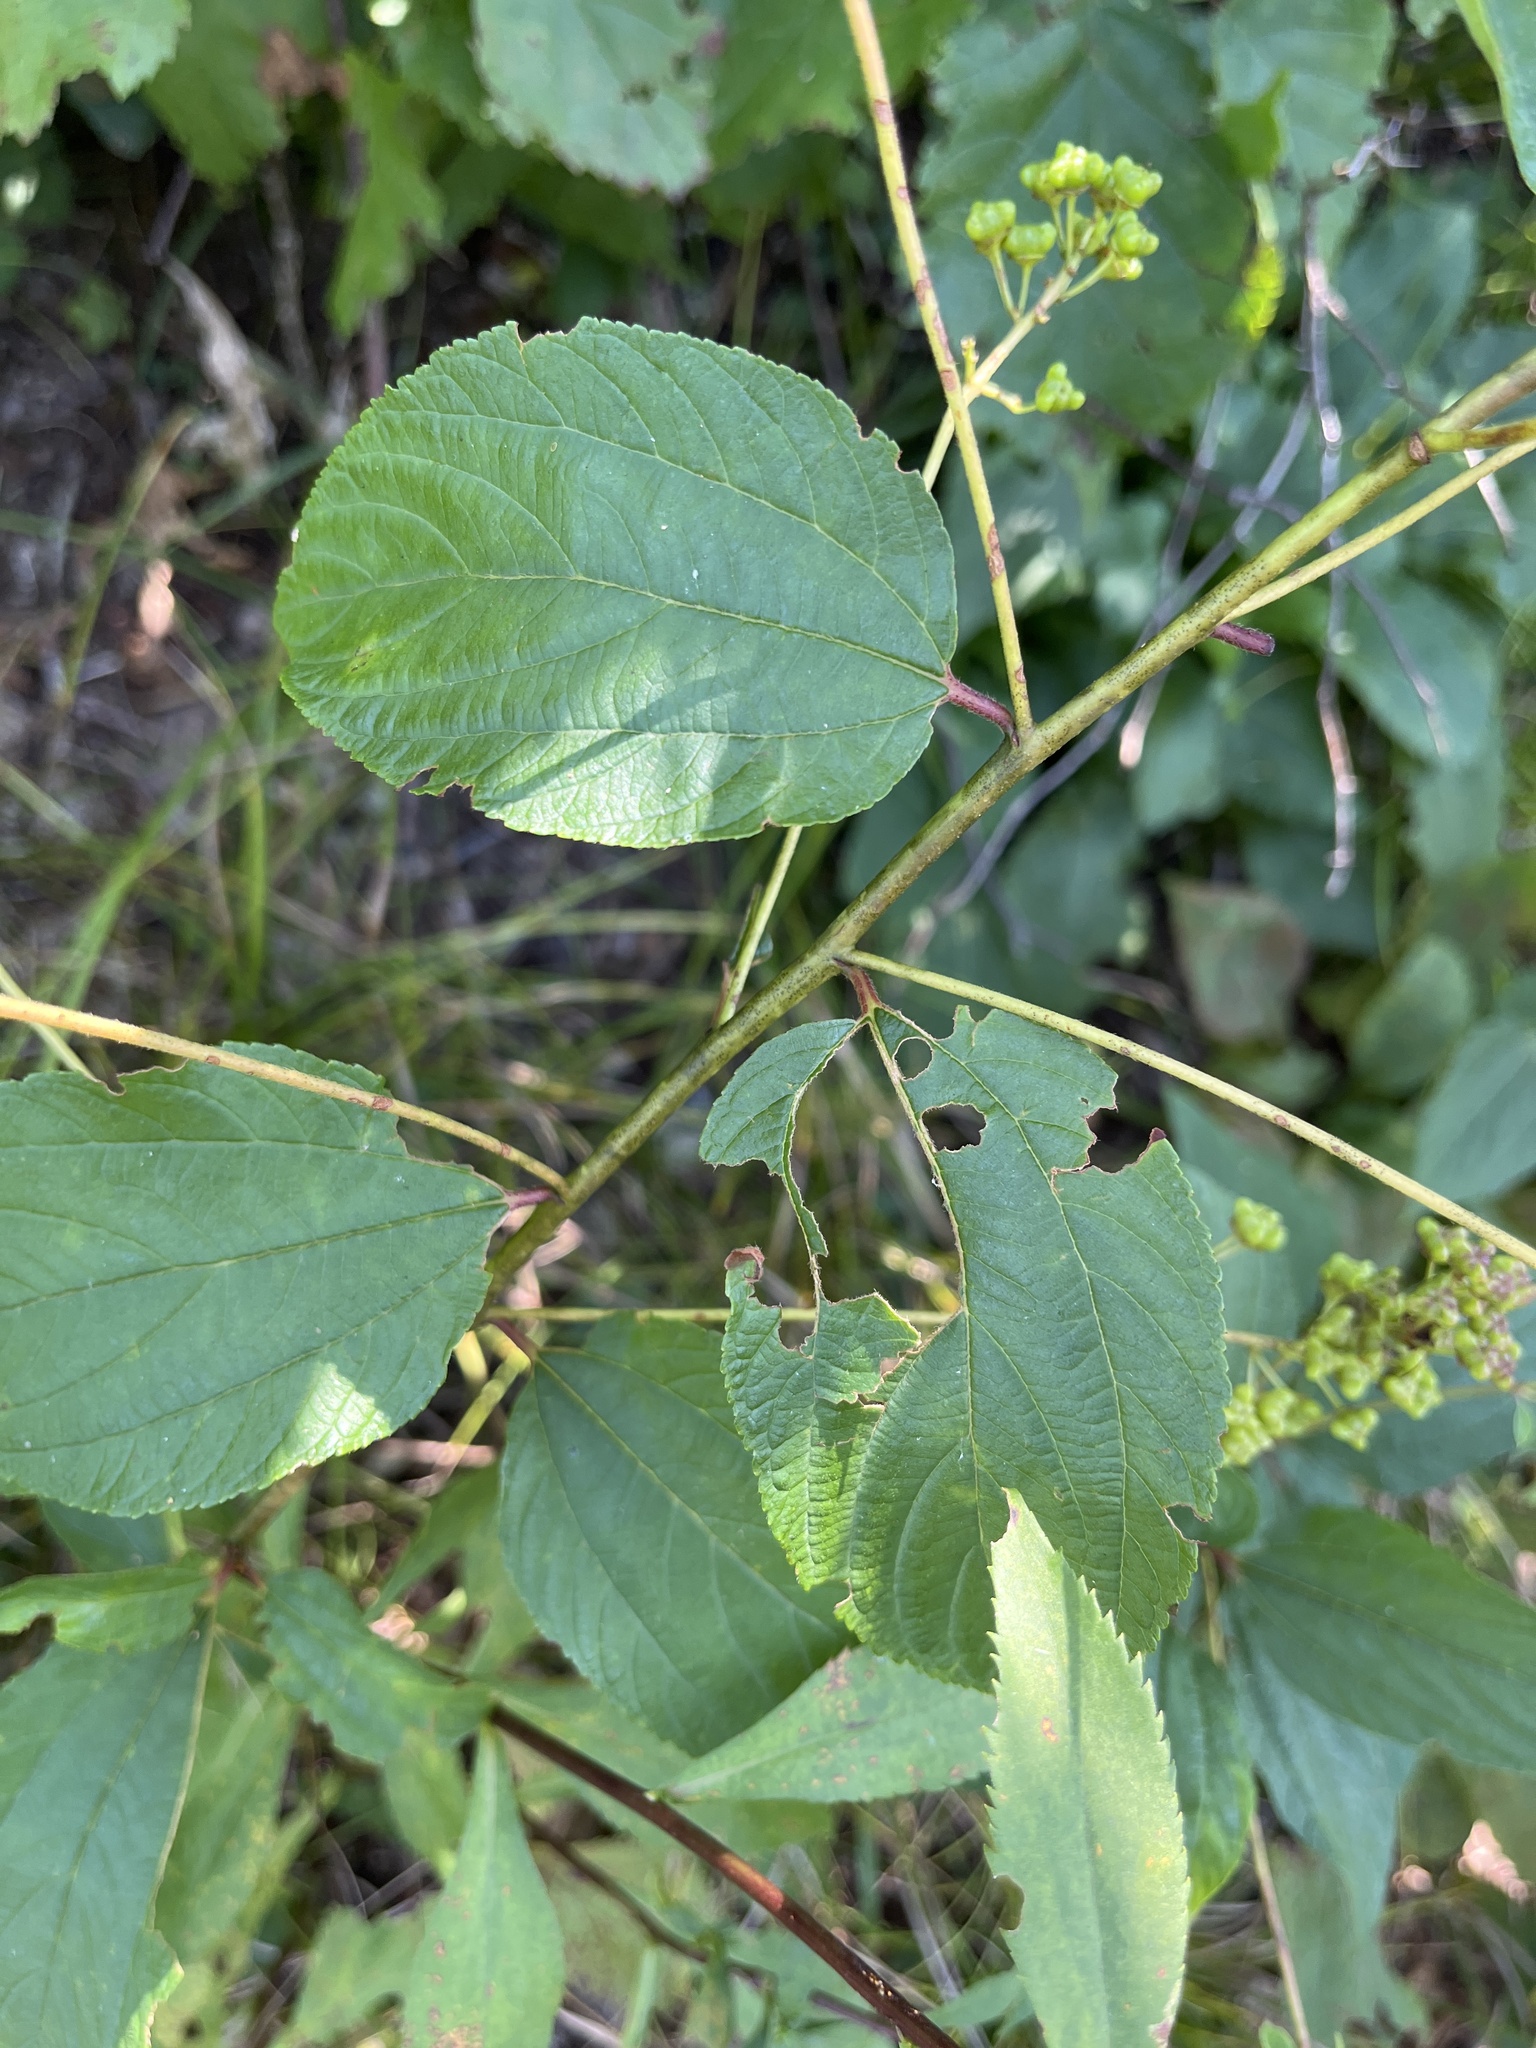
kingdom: Plantae
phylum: Tracheophyta
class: Magnoliopsida
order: Rosales
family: Rhamnaceae
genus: Ceanothus
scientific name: Ceanothus americanus
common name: Redroot
